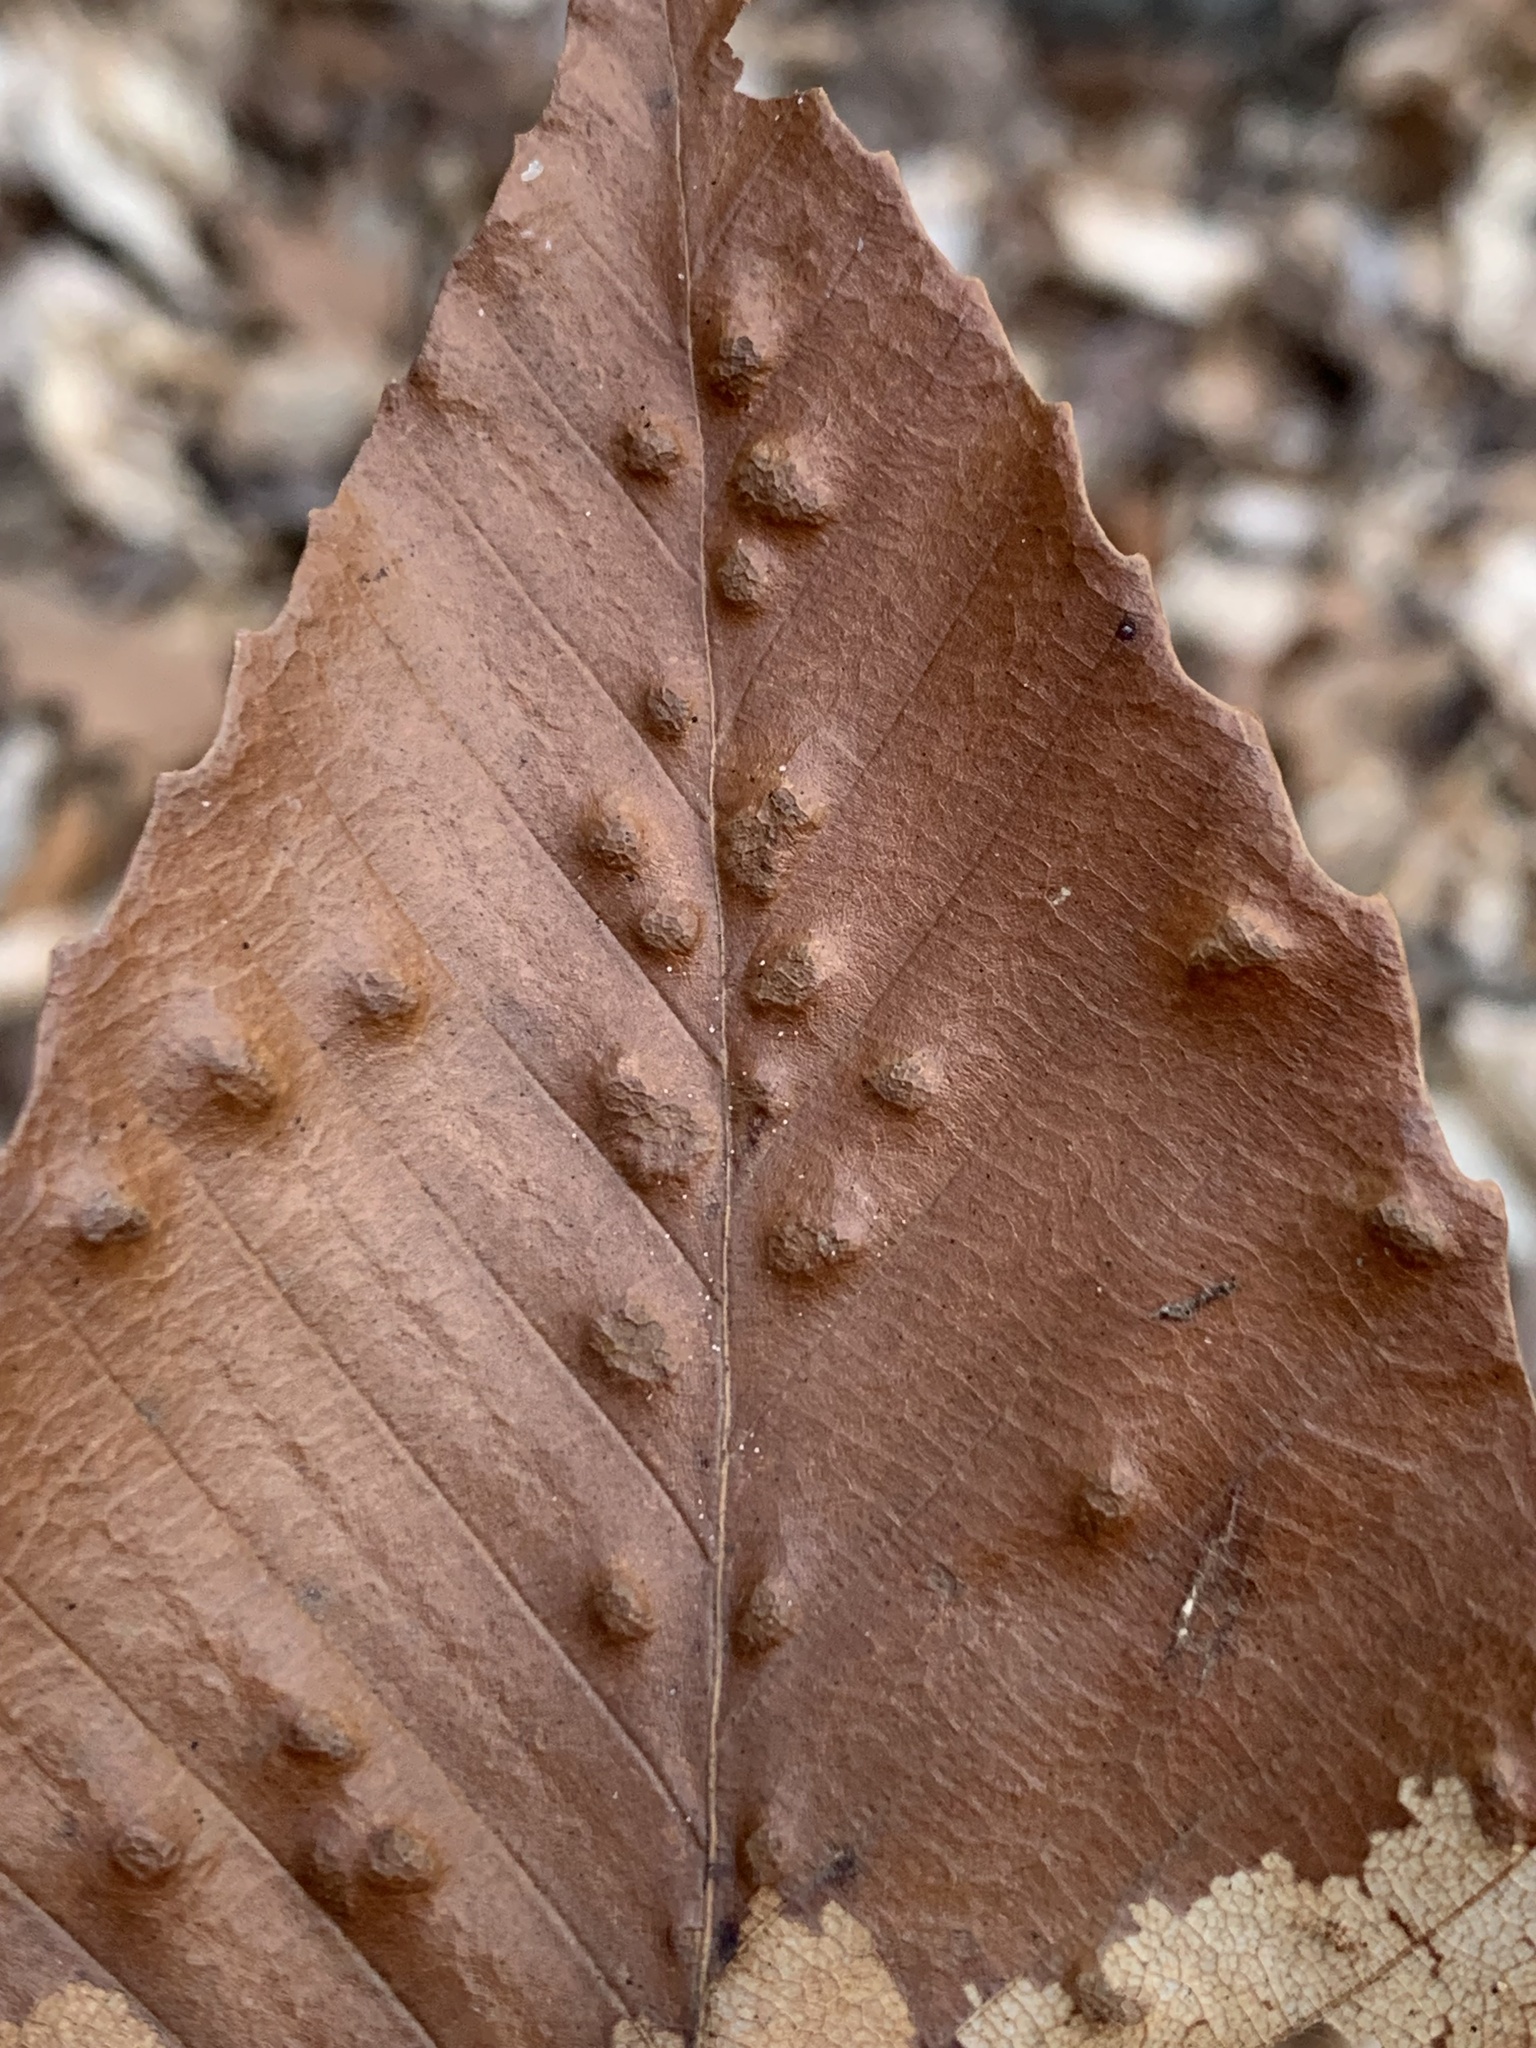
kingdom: Animalia
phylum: Arthropoda
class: Arachnida
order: Trombidiformes
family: Eriophyidae
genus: Acalitus
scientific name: Acalitus
